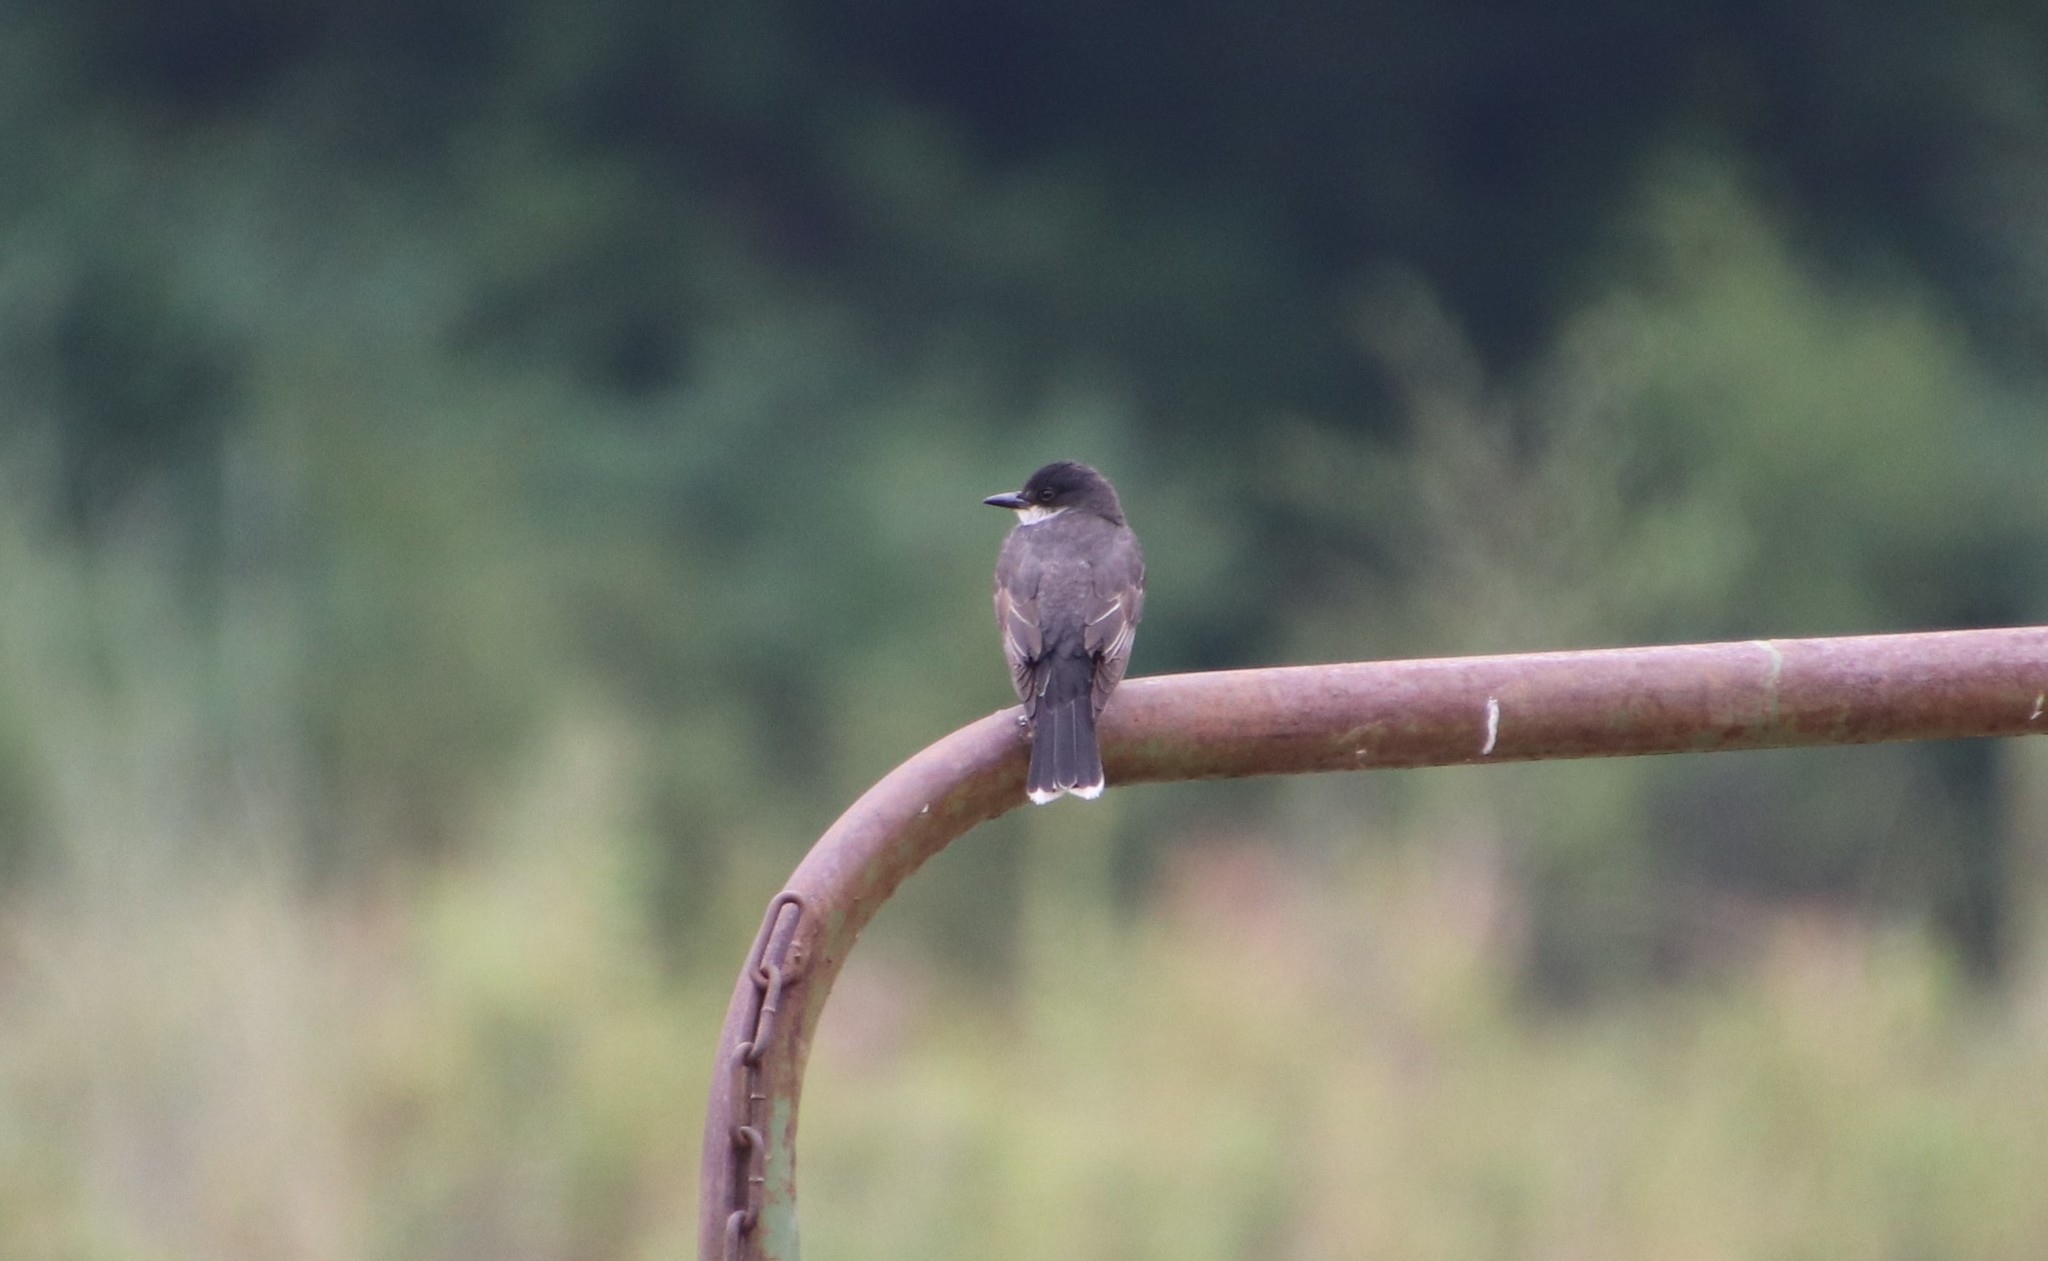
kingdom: Animalia
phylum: Chordata
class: Aves
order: Passeriformes
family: Tyrannidae
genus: Tyrannus
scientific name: Tyrannus tyrannus
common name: Eastern kingbird
